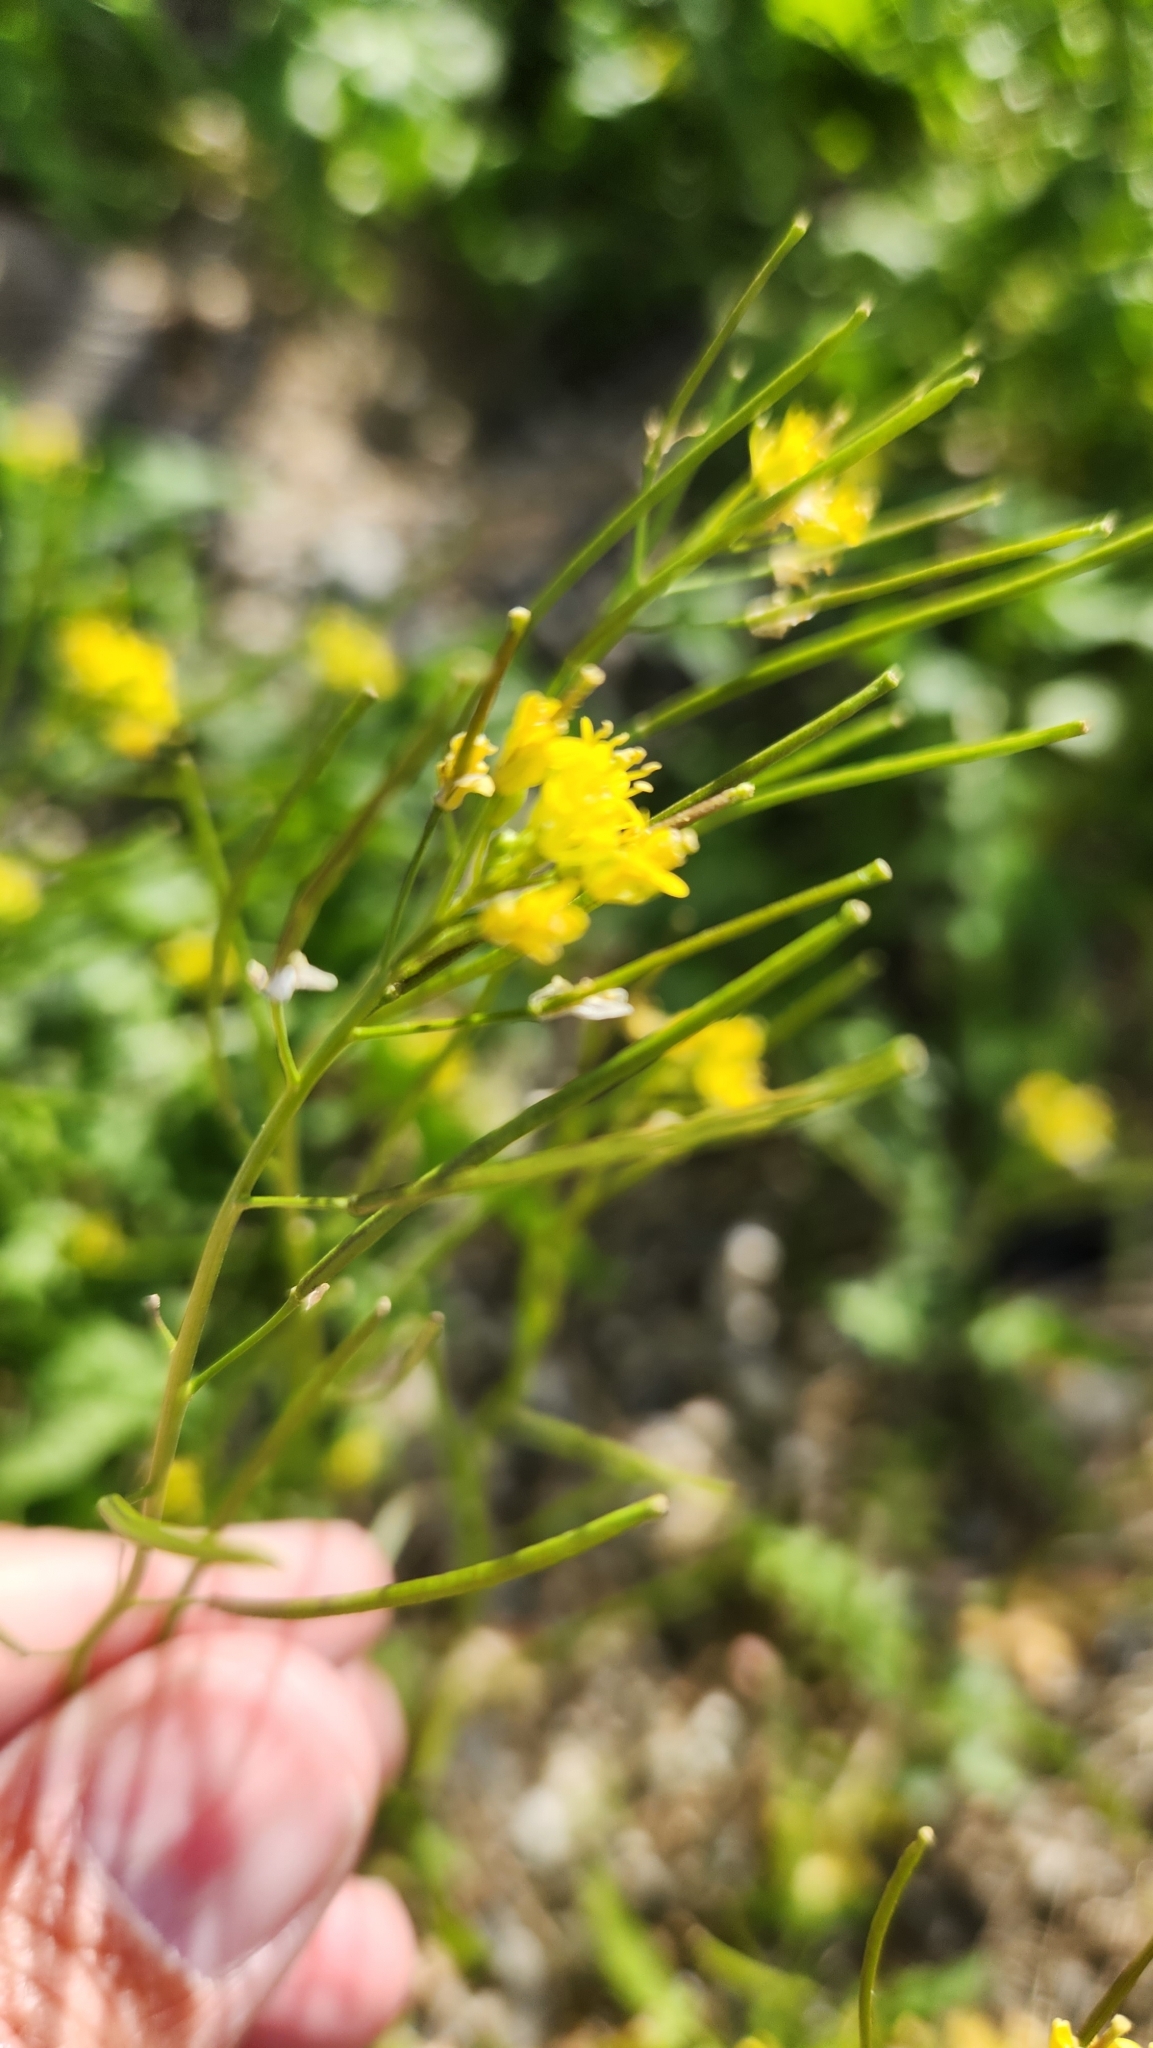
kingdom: Plantae
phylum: Tracheophyta
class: Magnoliopsida
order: Brassicales
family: Brassicaceae
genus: Sisymbrium
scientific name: Sisymbrium irio
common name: London rocket
